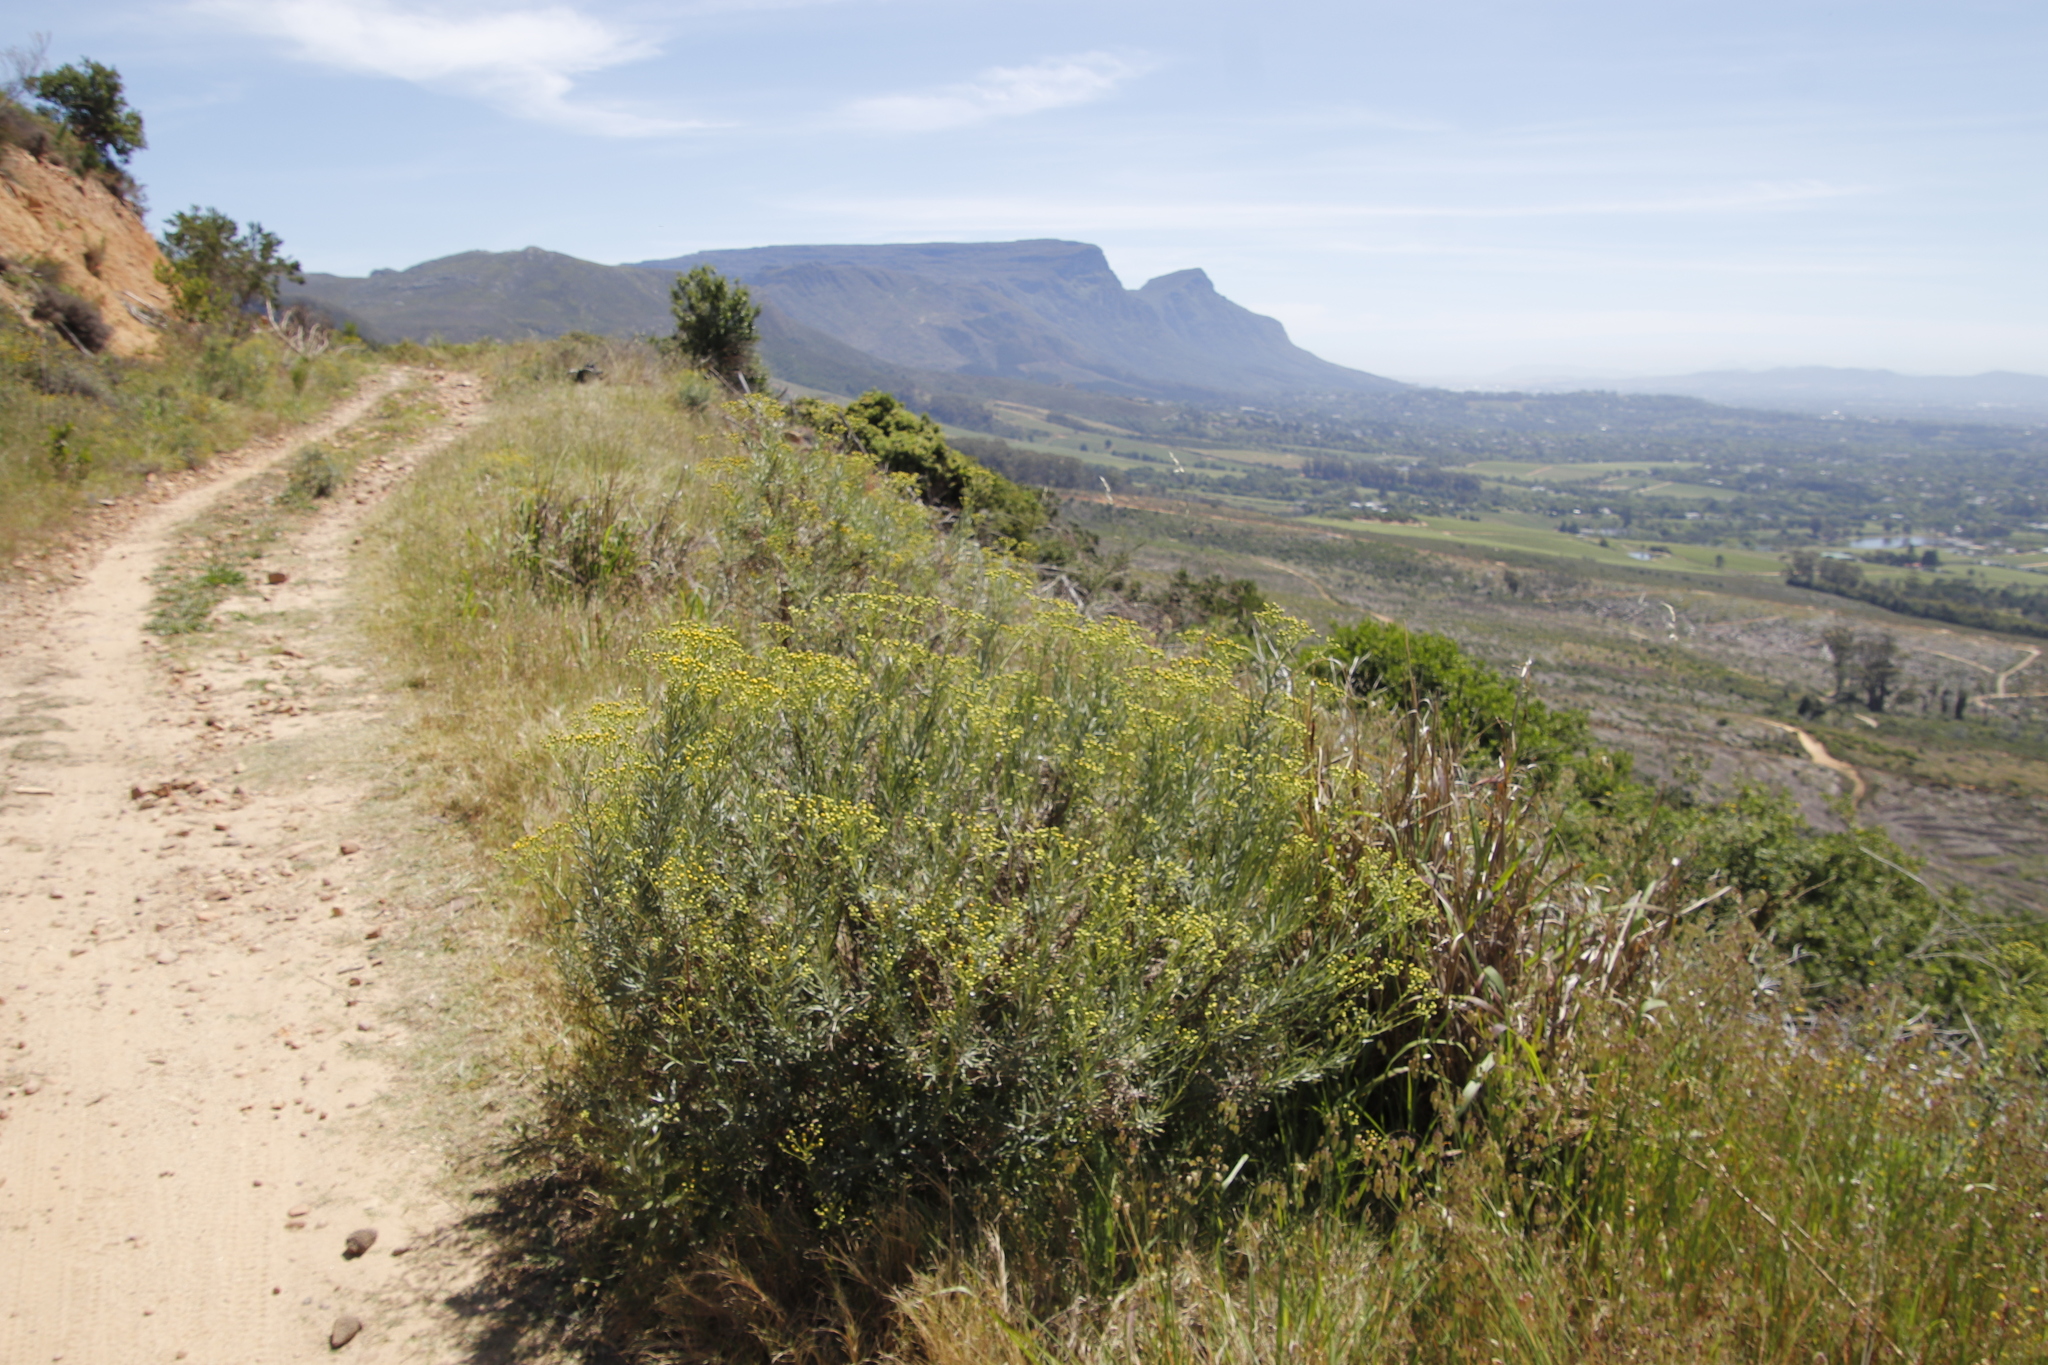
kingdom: Plantae
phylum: Tracheophyta
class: Magnoliopsida
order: Asterales
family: Asteraceae
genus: Senecio
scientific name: Senecio pterophorus
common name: Shoddy ragwort
